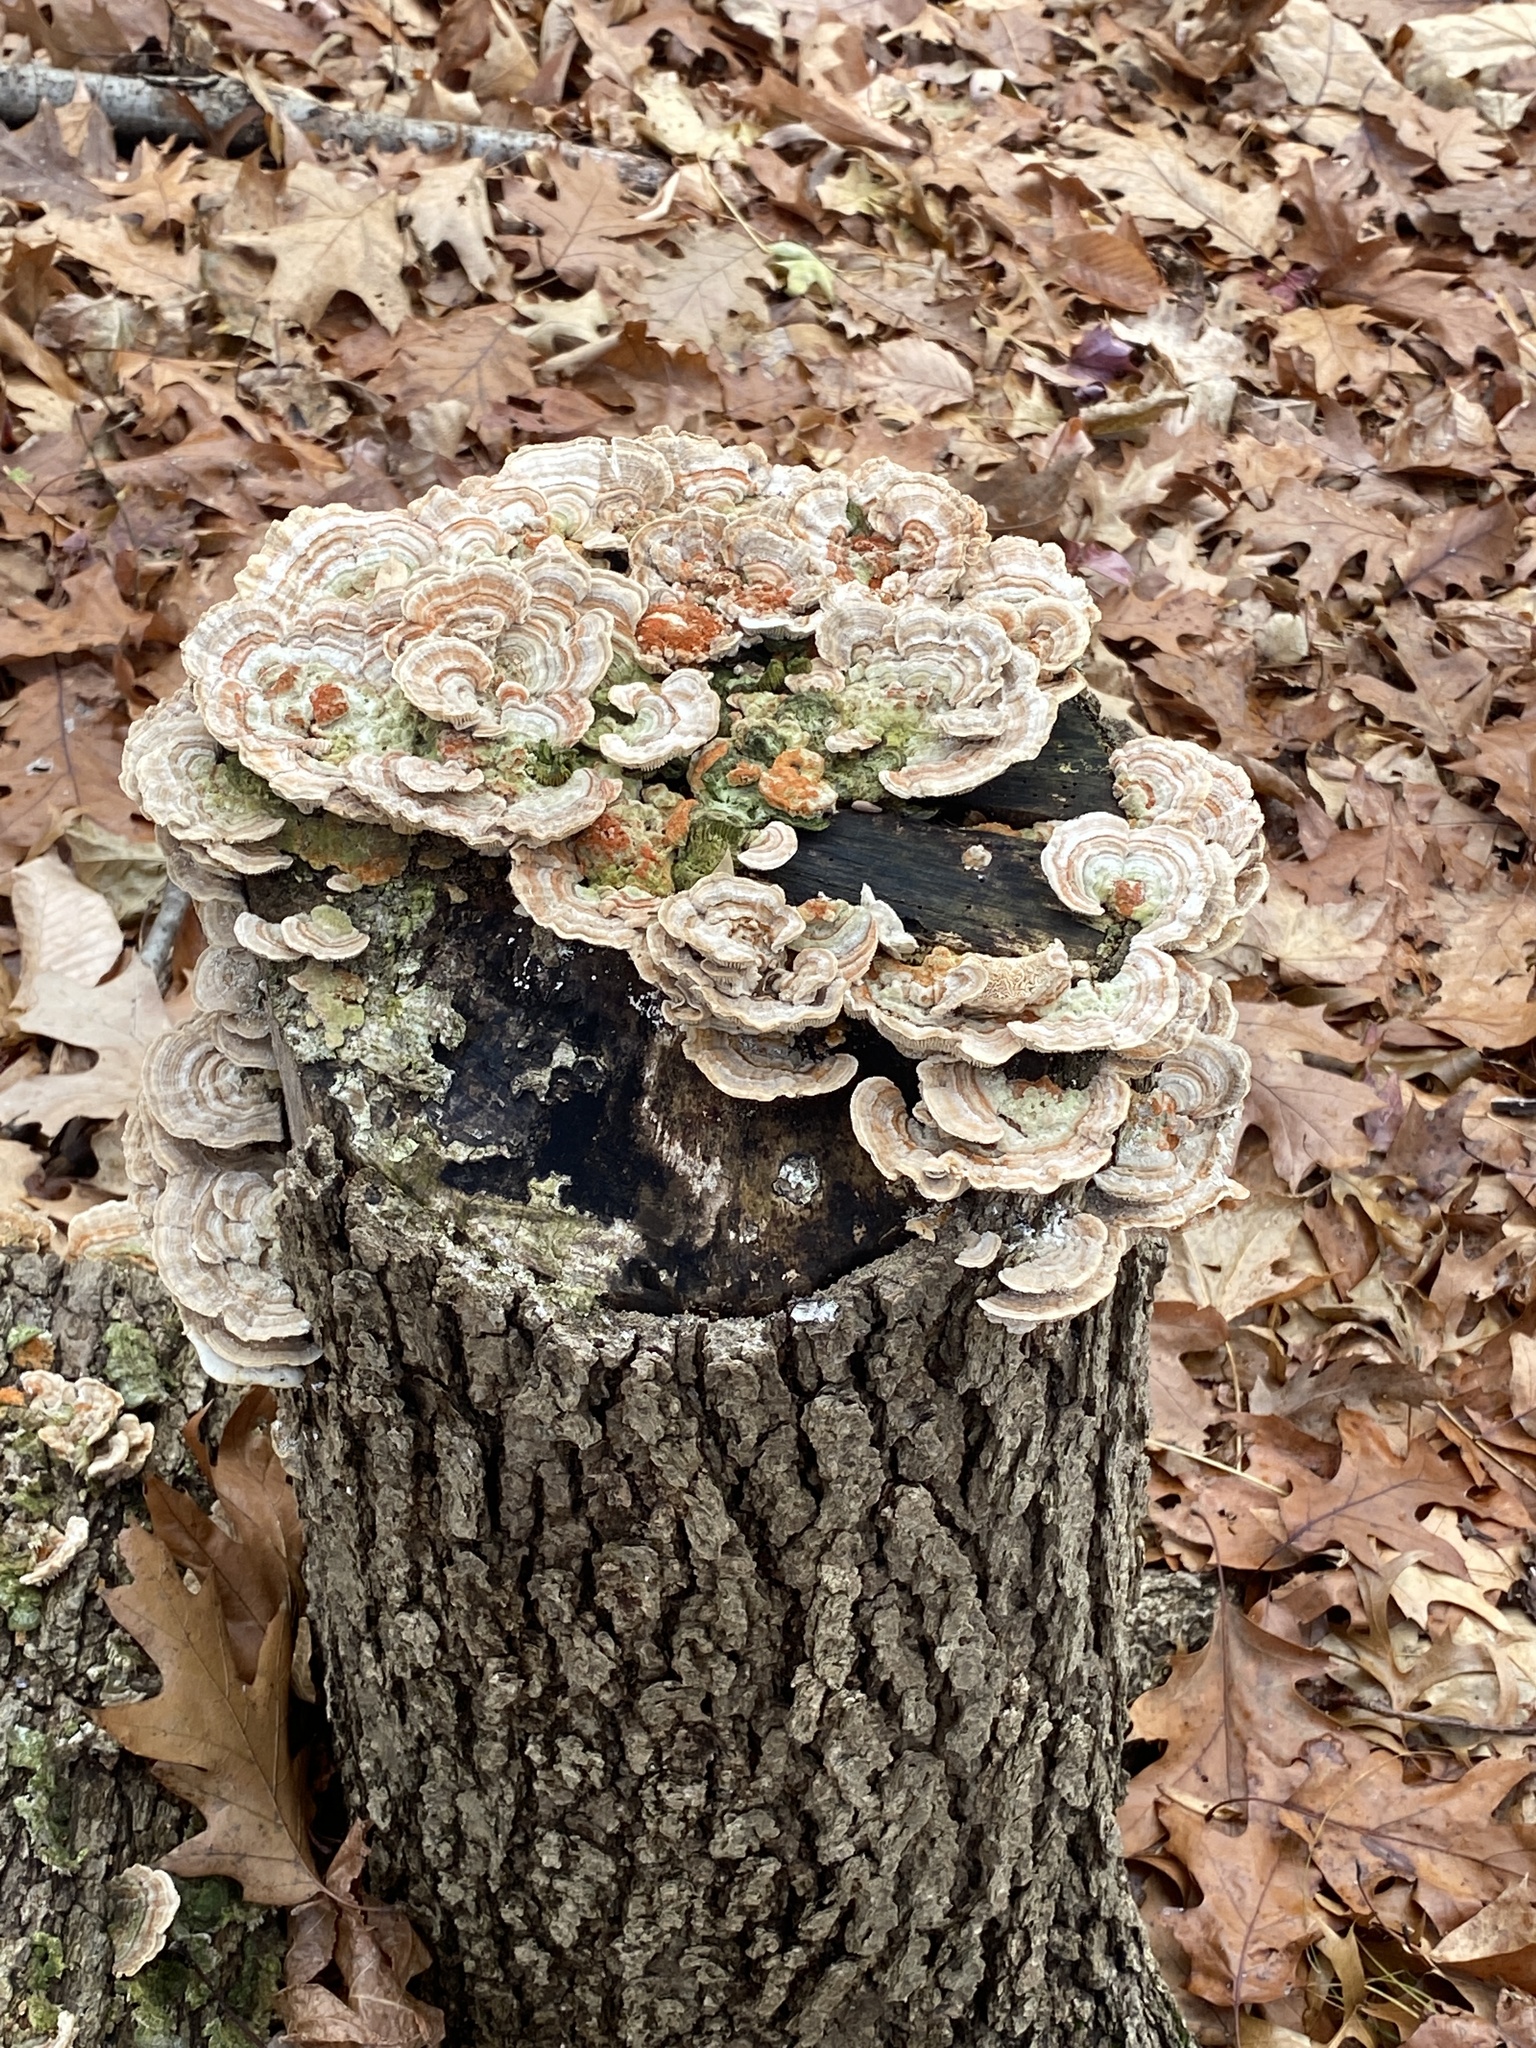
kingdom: Fungi
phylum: Basidiomycota
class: Agaricomycetes
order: Polyporales
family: Polyporaceae
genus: Lenzites
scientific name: Lenzites betulinus
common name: Birch mazegill
